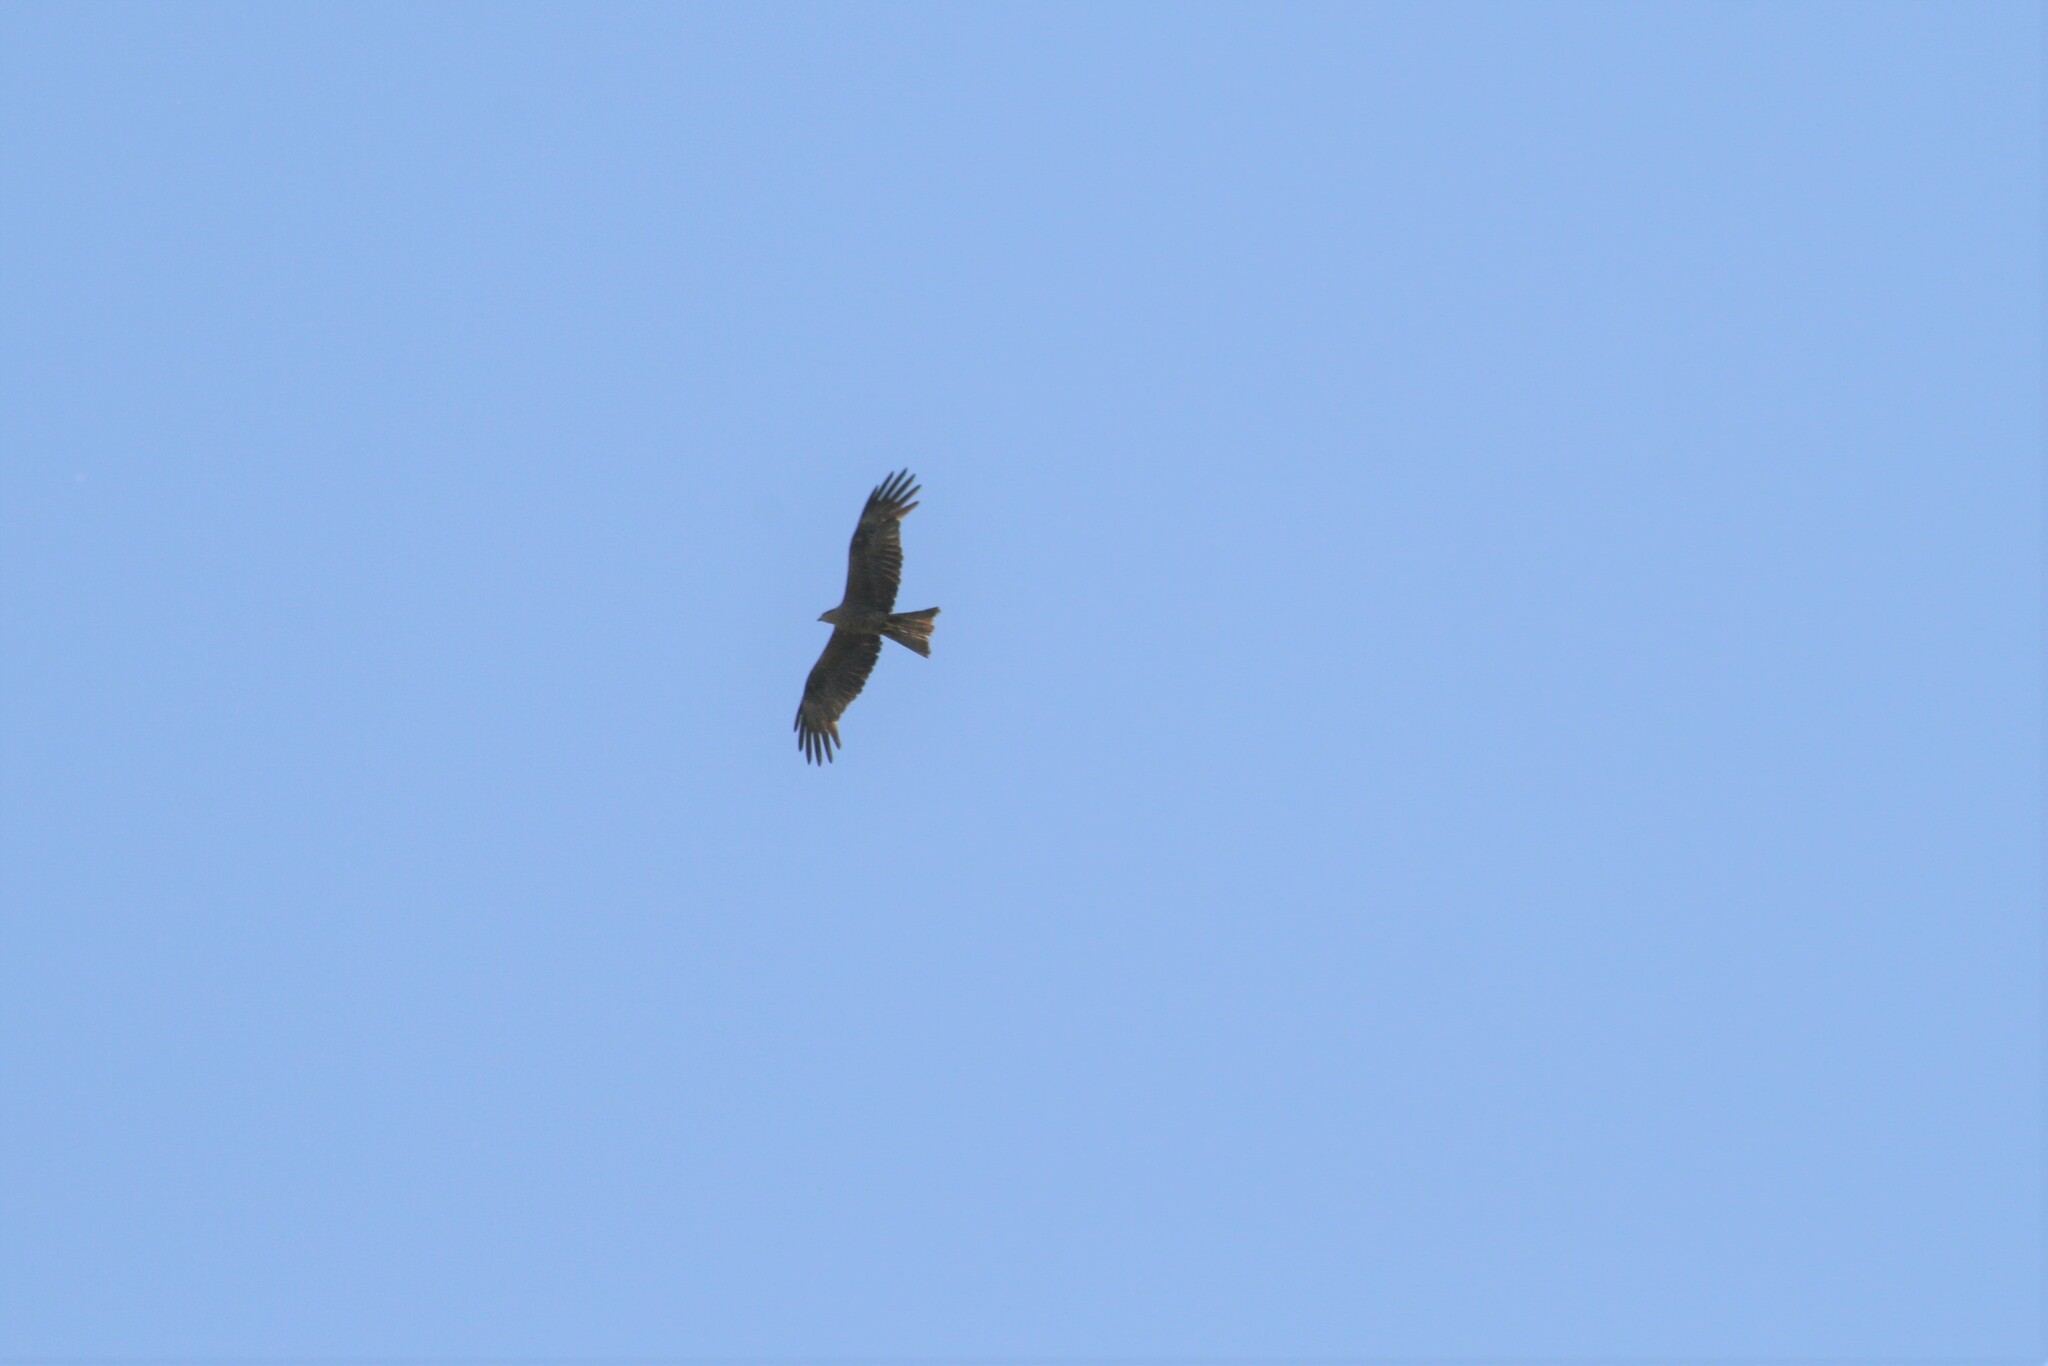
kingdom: Animalia
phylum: Chordata
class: Aves
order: Accipitriformes
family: Accipitridae
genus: Milvus
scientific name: Milvus migrans
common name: Black kite
